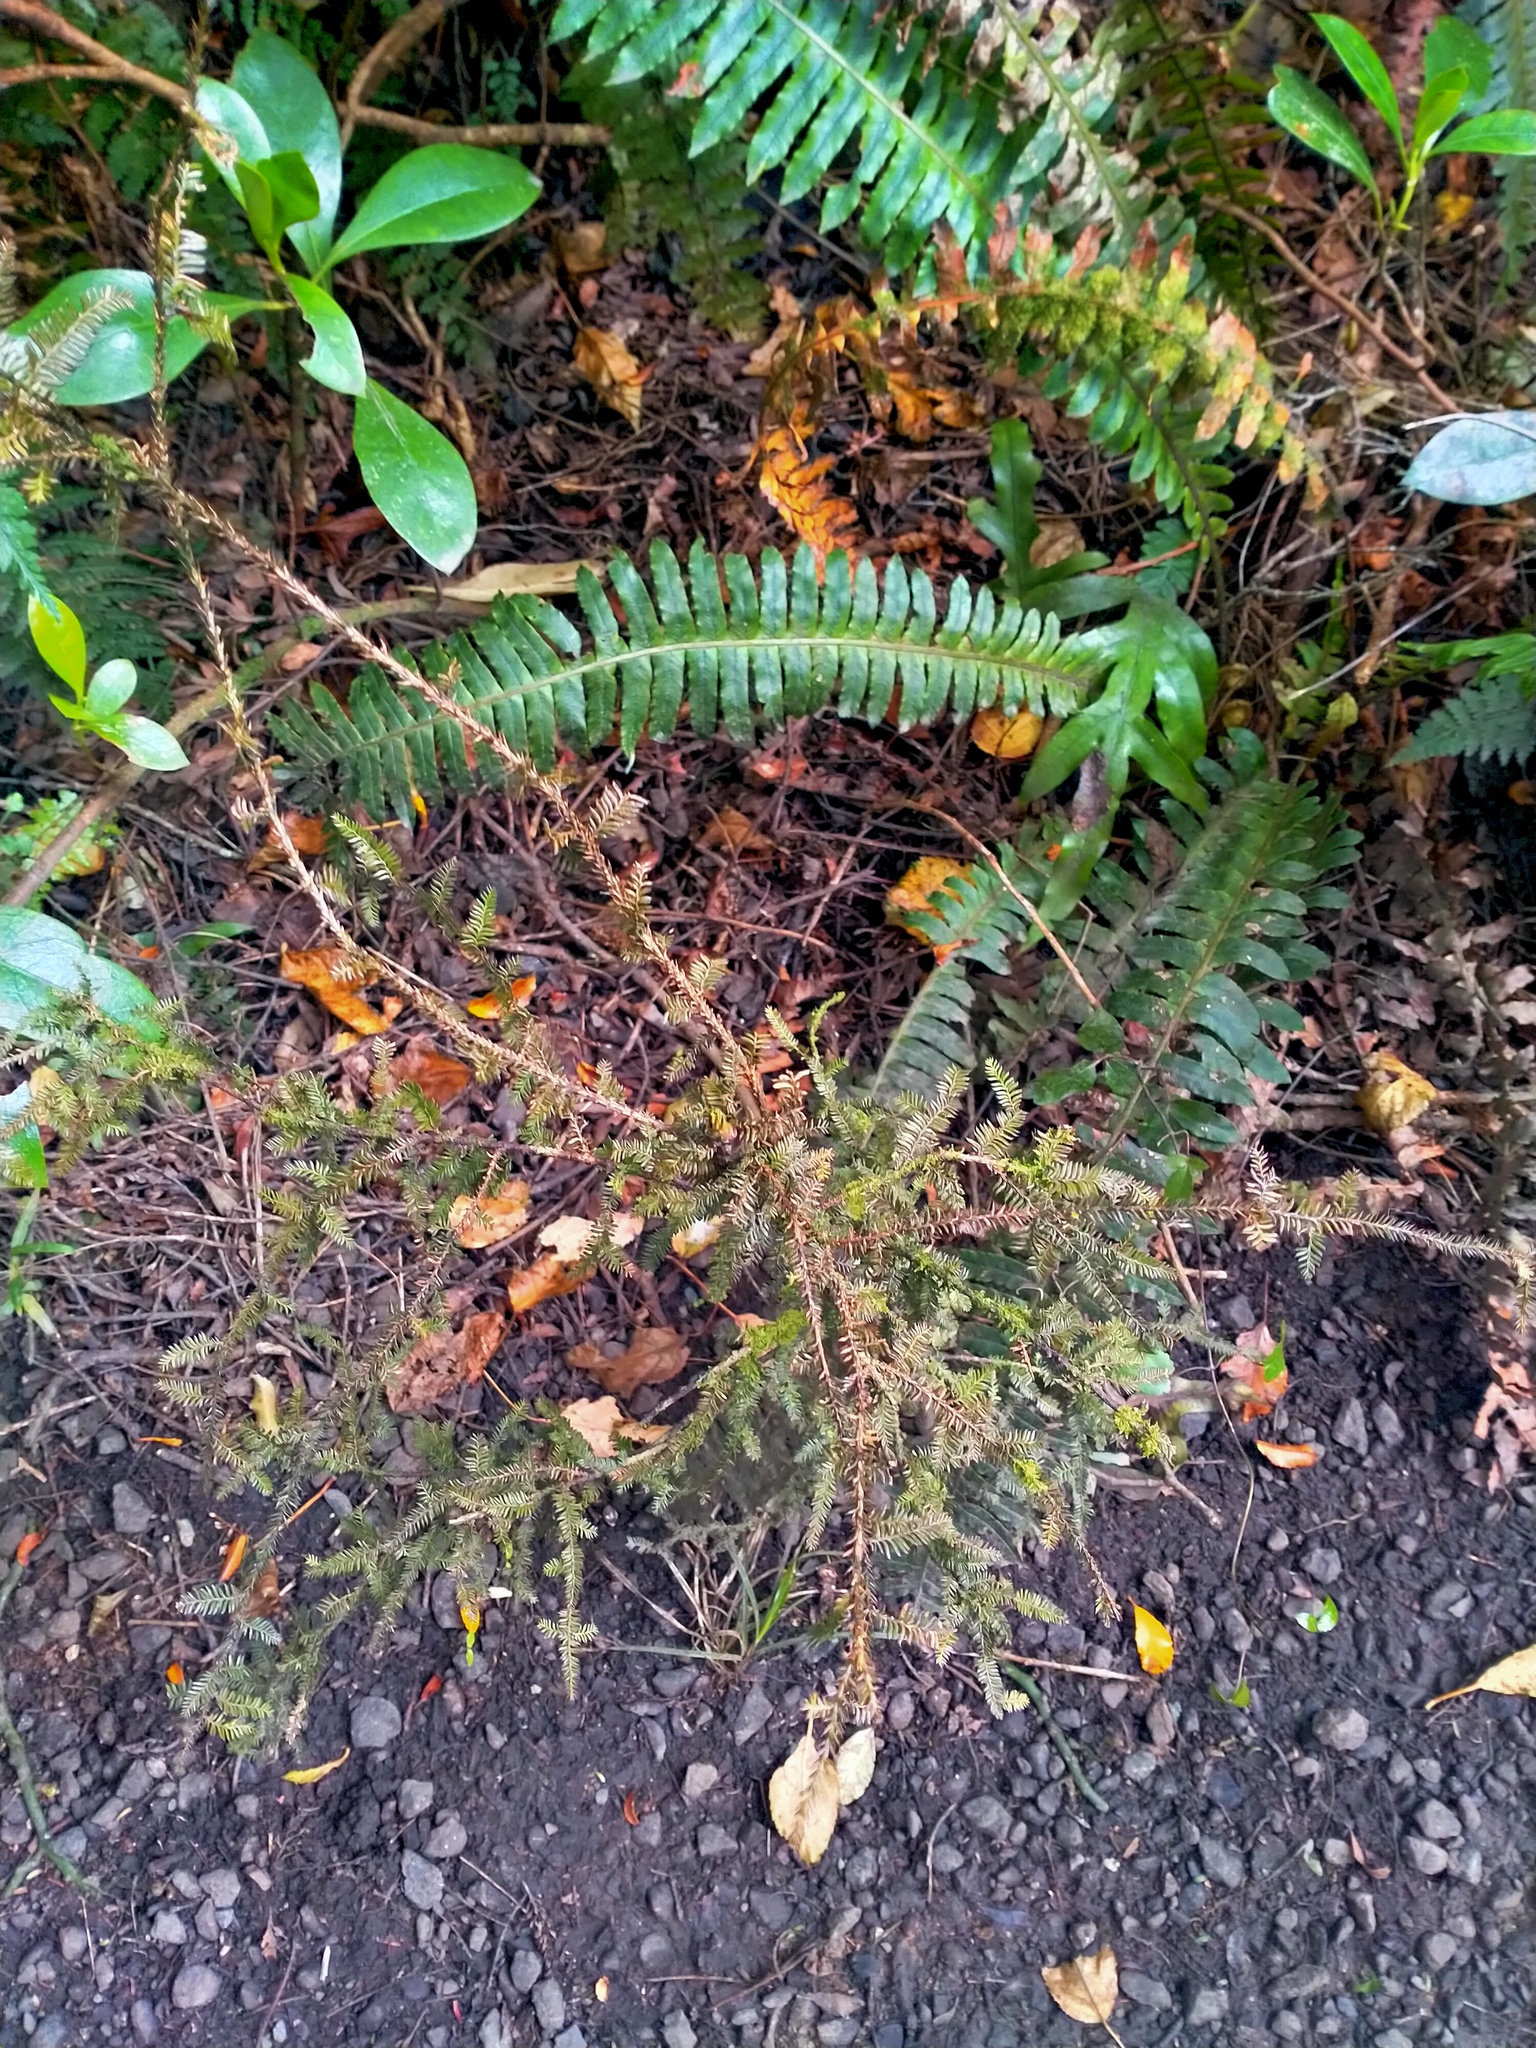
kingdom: Plantae
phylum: Tracheophyta
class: Pinopsida
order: Pinales
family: Podocarpaceae
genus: Dacrycarpus
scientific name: Dacrycarpus dacrydioides
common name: White pine
